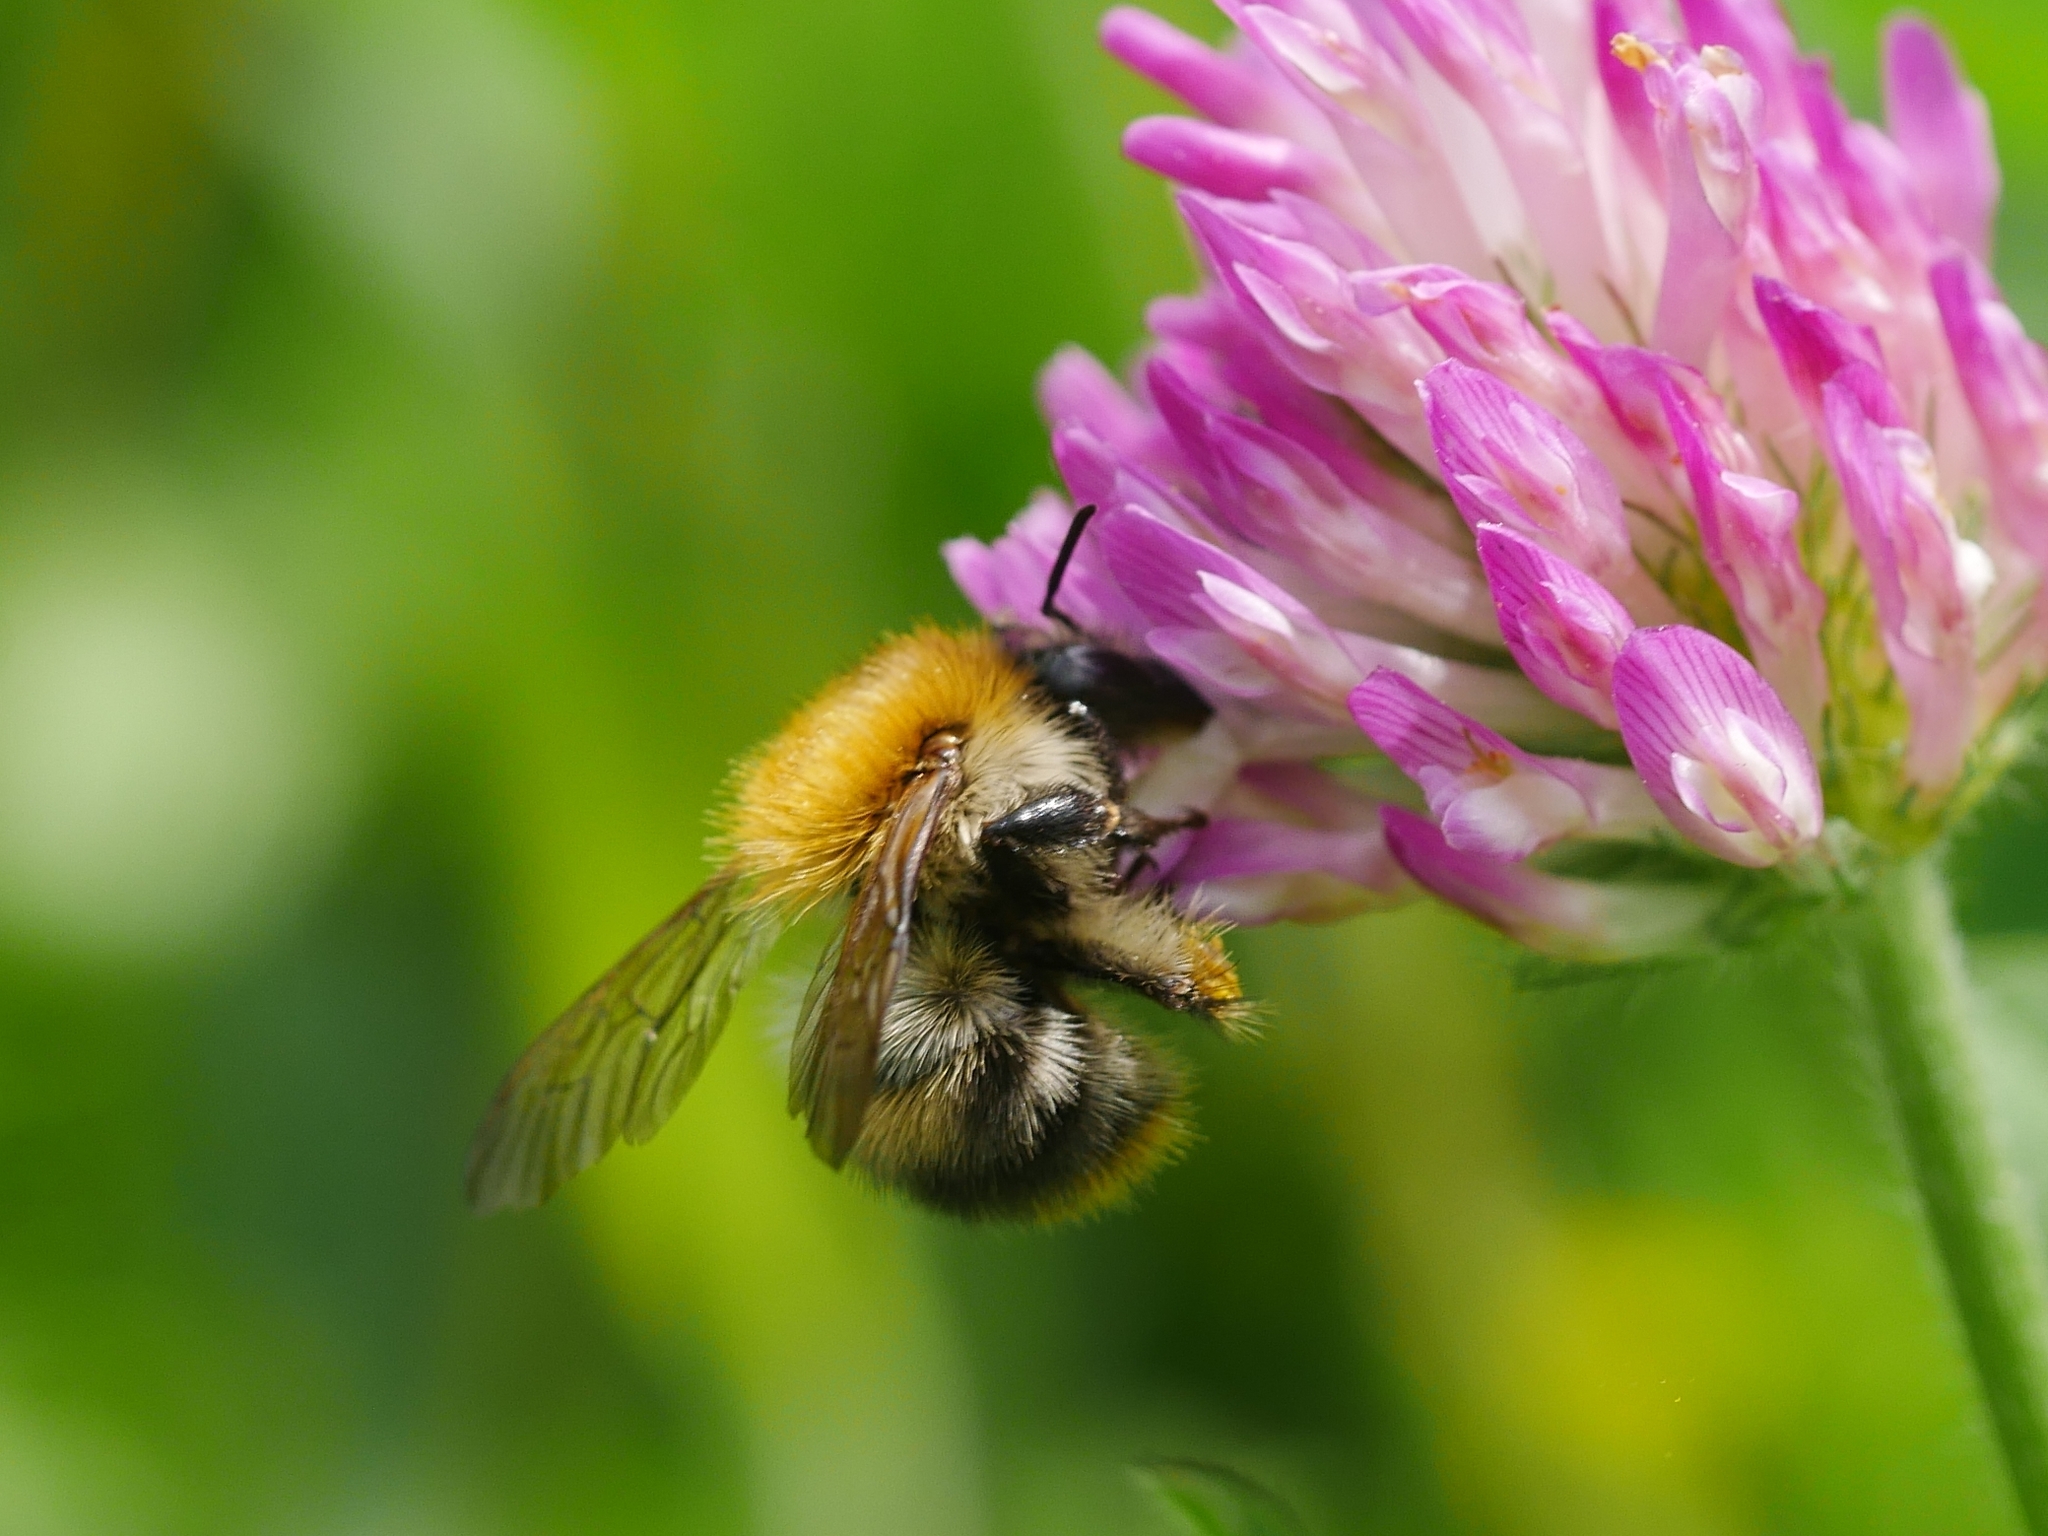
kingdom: Animalia
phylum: Arthropoda
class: Insecta
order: Hymenoptera
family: Apidae
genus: Bombus
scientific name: Bombus pascuorum
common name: Common carder bee
